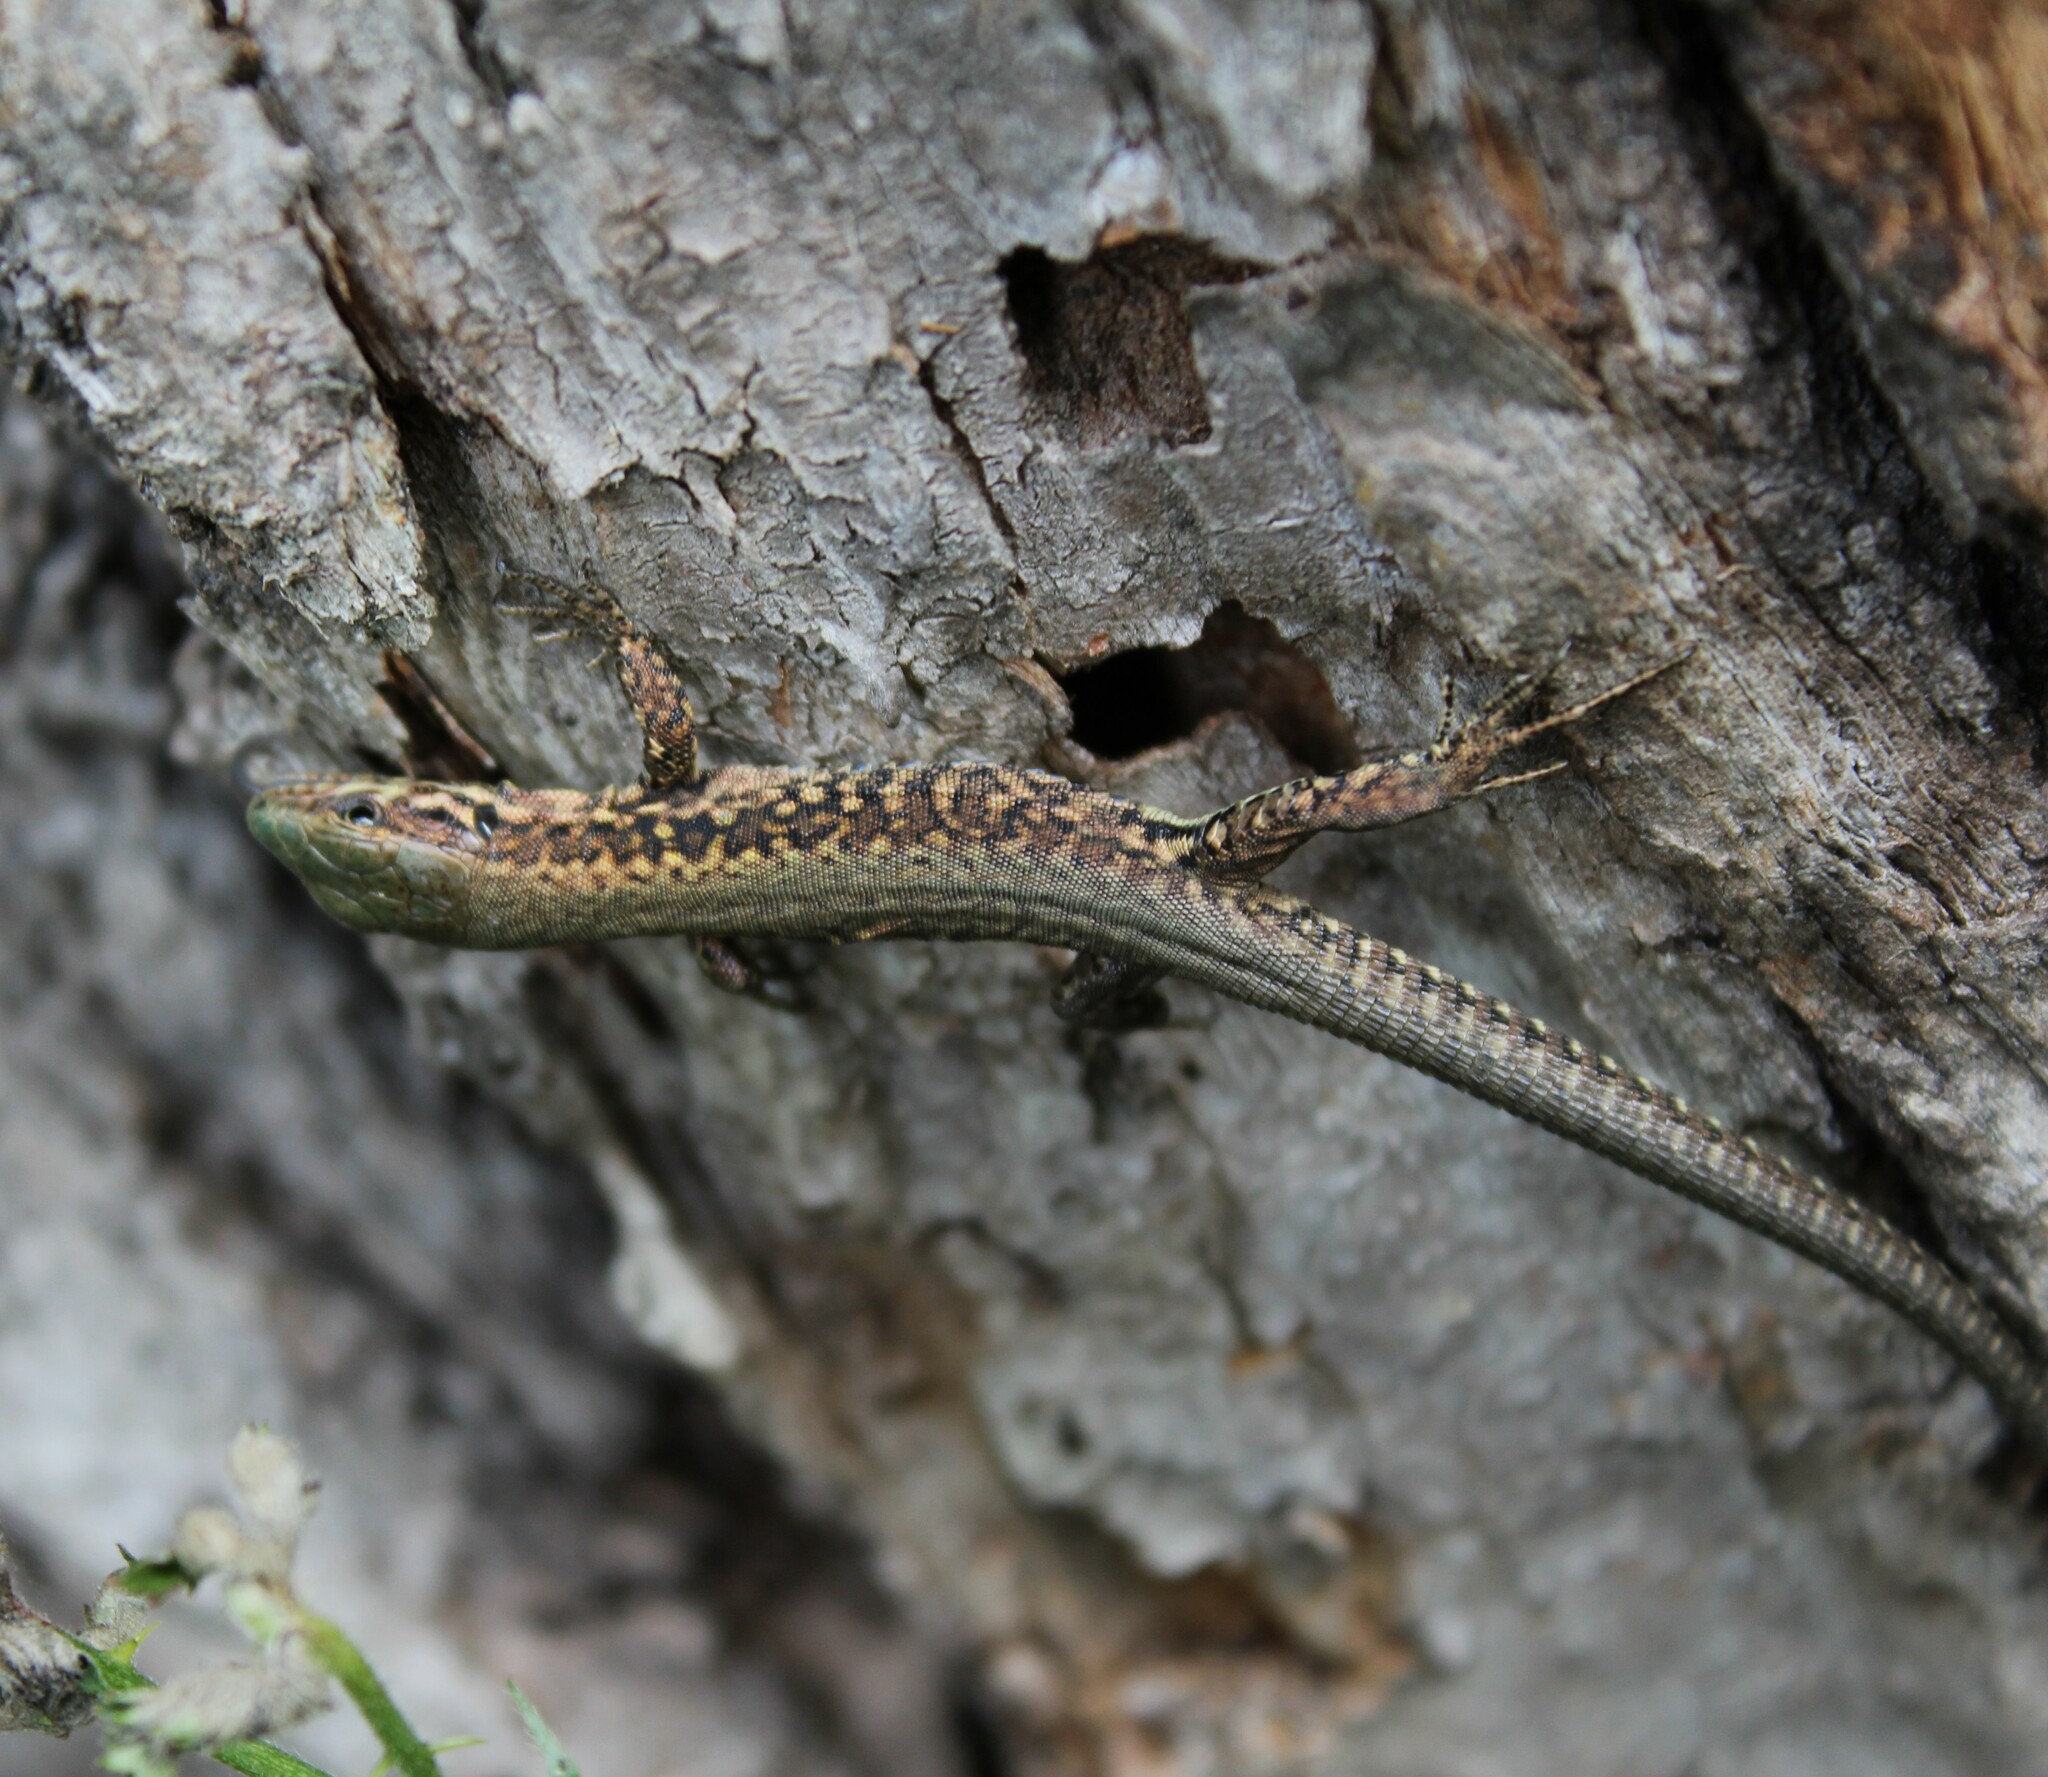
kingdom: Animalia
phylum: Chordata
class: Squamata
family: Lacertidae
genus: Podarcis
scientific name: Podarcis muralis
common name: Common wall lizard
